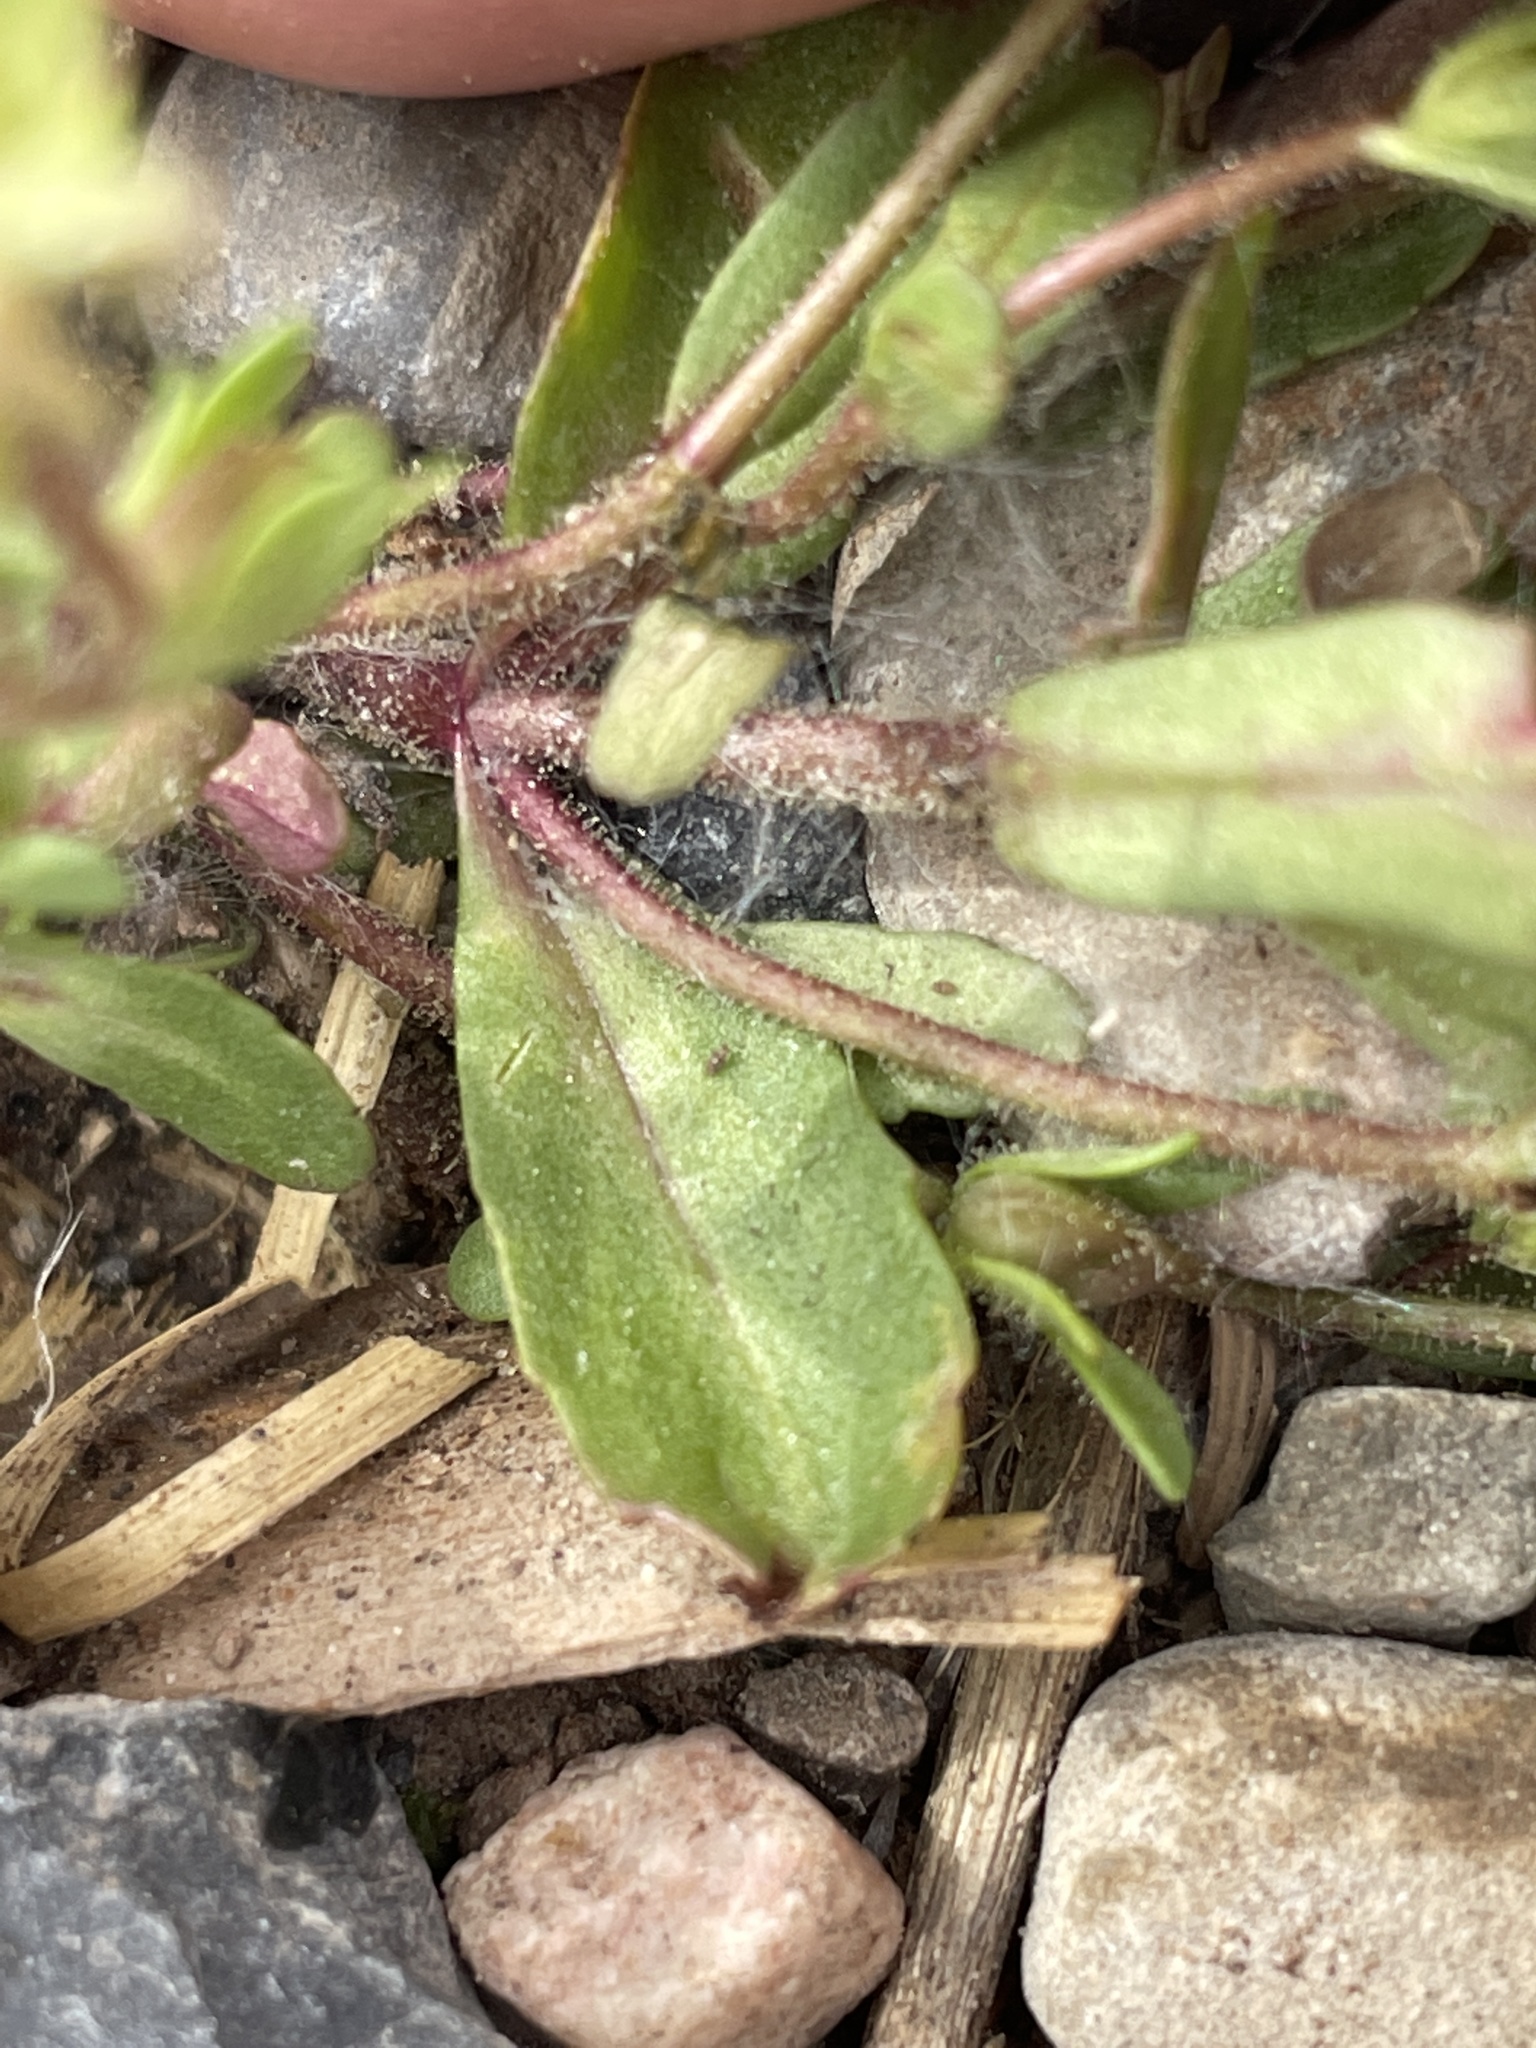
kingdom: Plantae
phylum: Tracheophyta
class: Magnoliopsida
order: Lamiales
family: Plantaginaceae
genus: Veronica
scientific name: Veronica peregrina
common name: Neckweed
